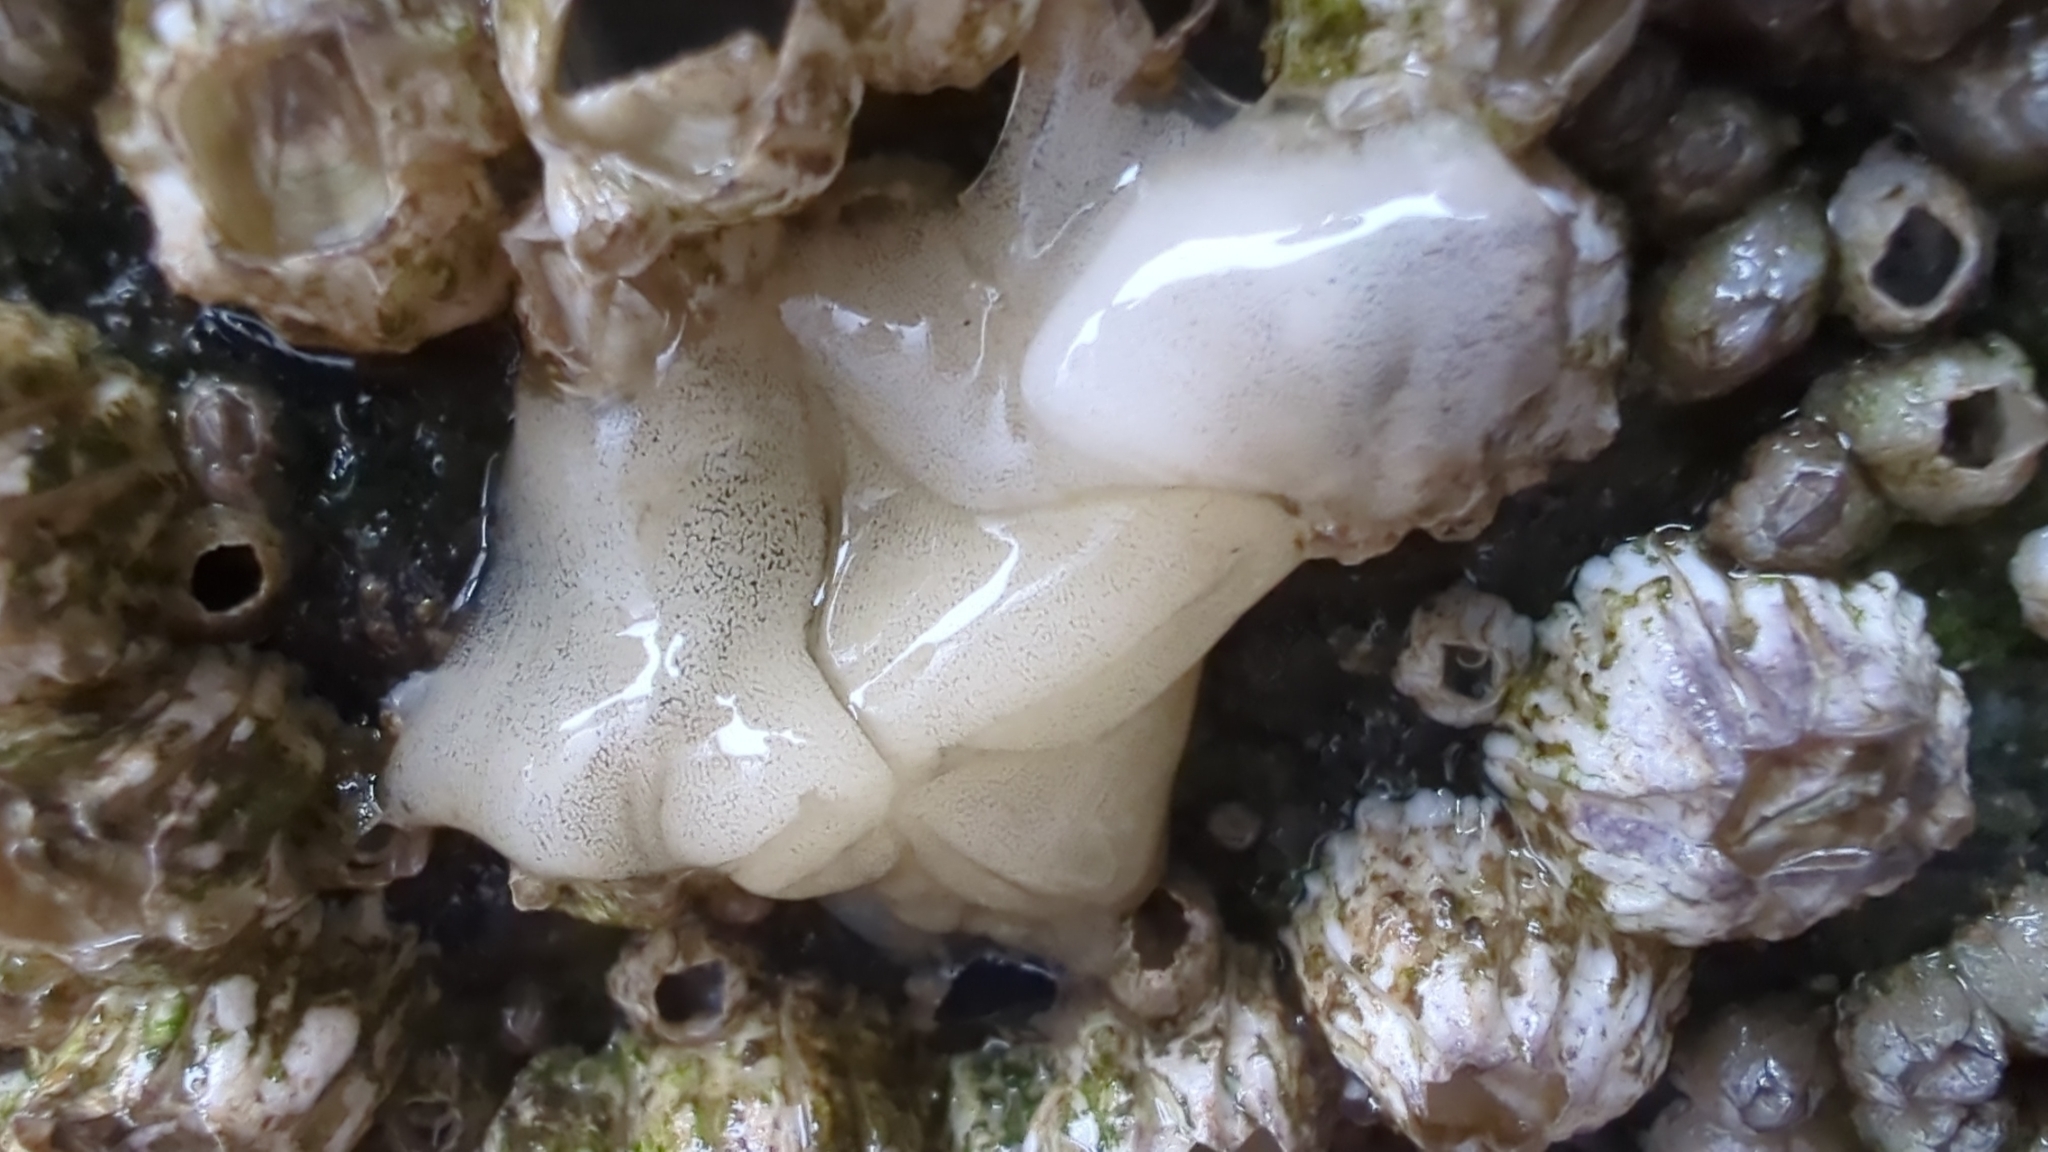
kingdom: Animalia
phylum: Mollusca
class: Gastropoda
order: Nudibranchia
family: Onchidorididae
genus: Onchidoris
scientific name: Onchidoris bilamellata
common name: Barnacle-eating onchidoris
